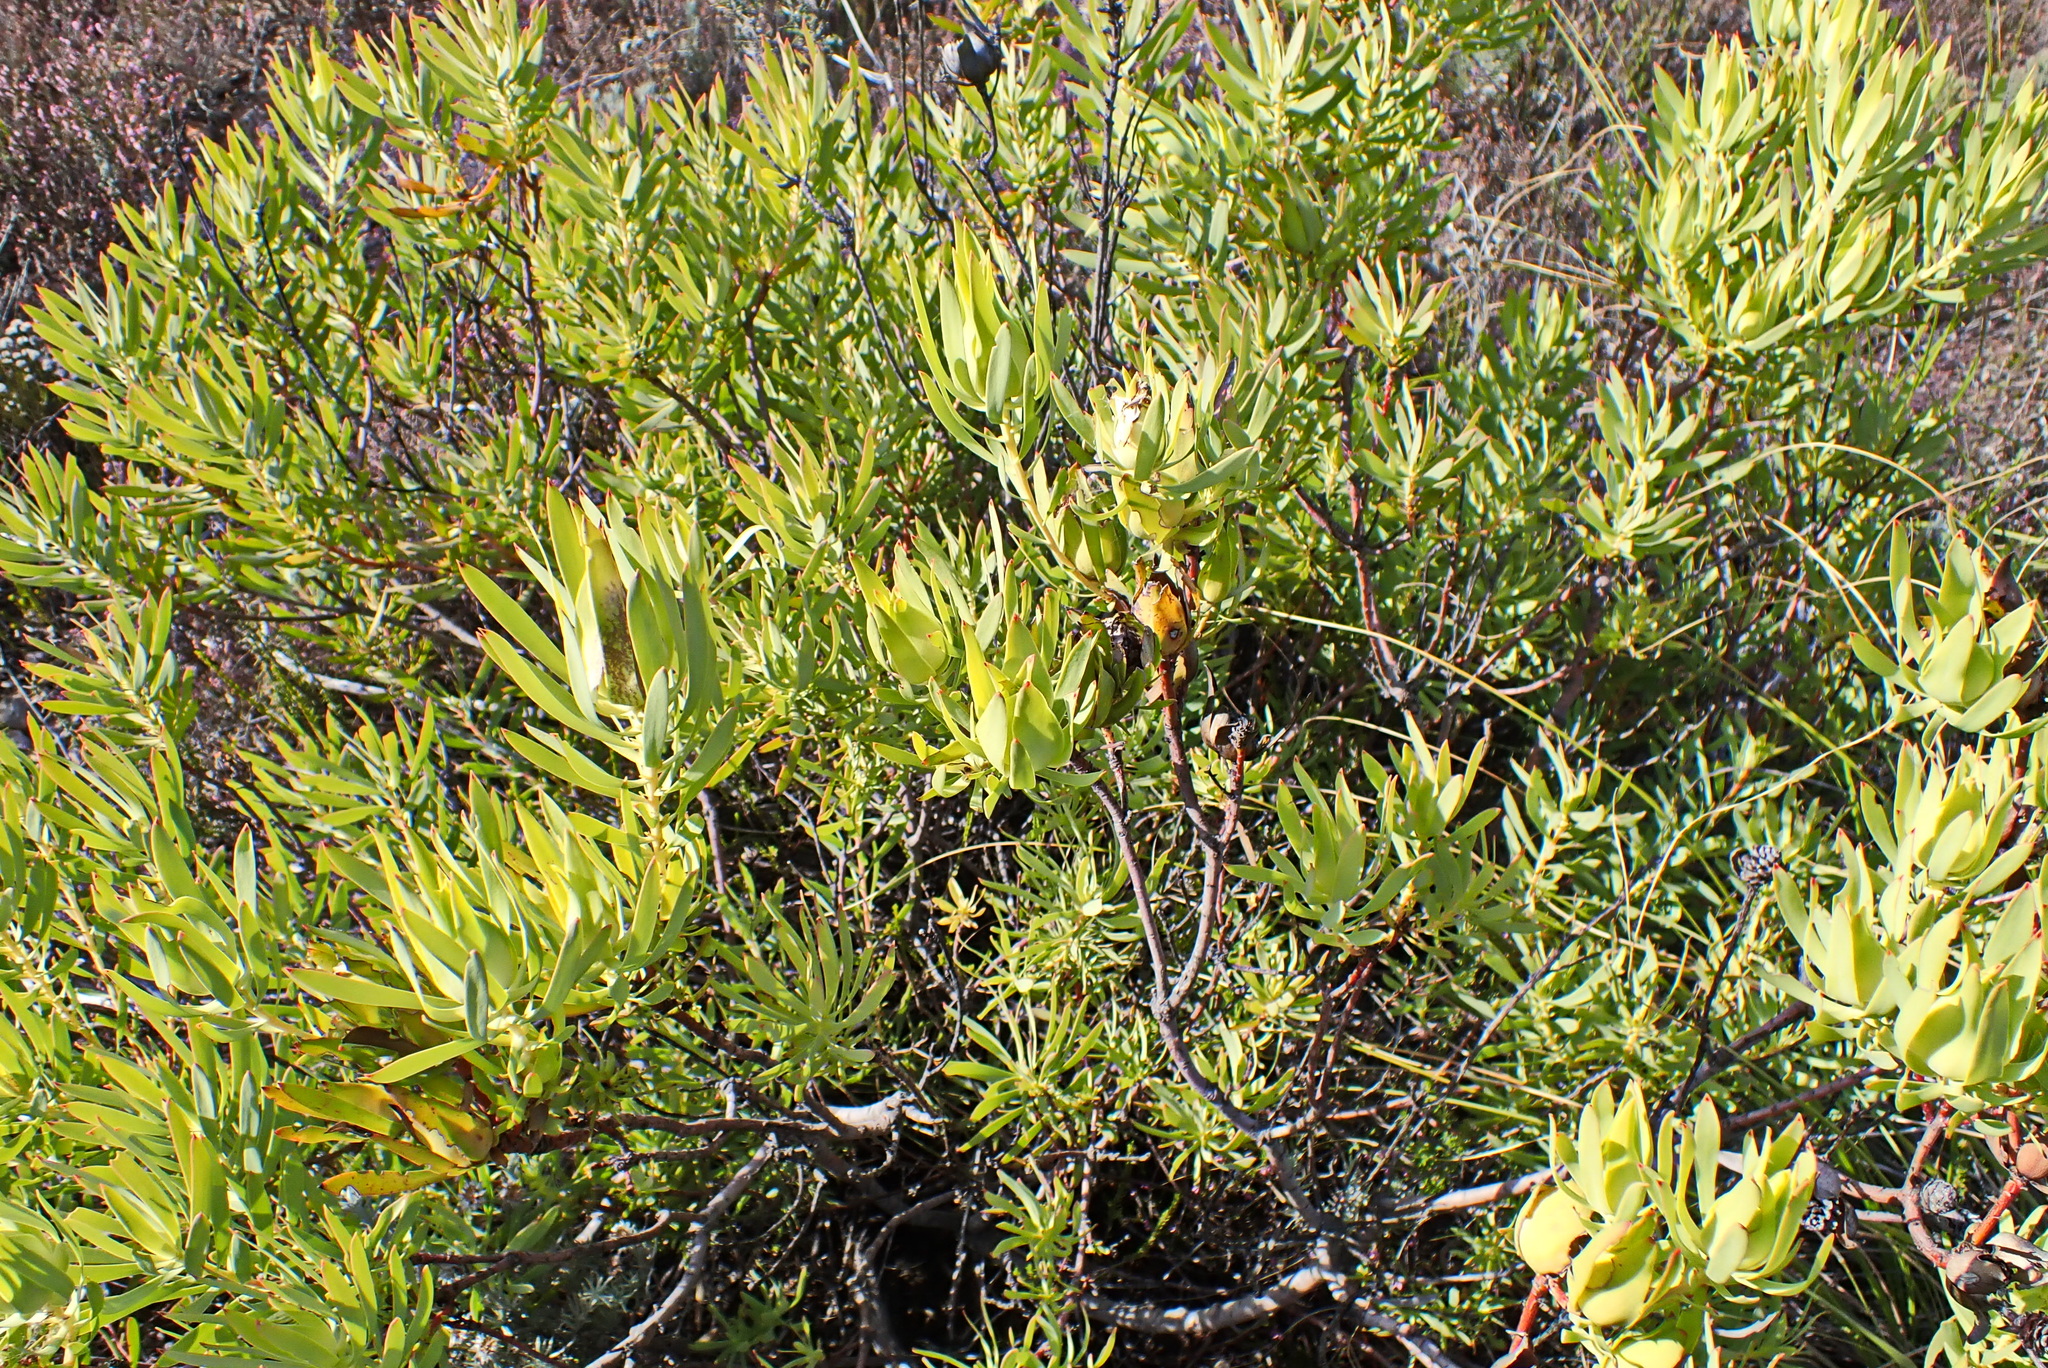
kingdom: Plantae
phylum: Tracheophyta
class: Magnoliopsida
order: Proteales
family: Proteaceae
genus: Leucadendron
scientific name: Leucadendron salignum
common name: Common sunshine conebush
